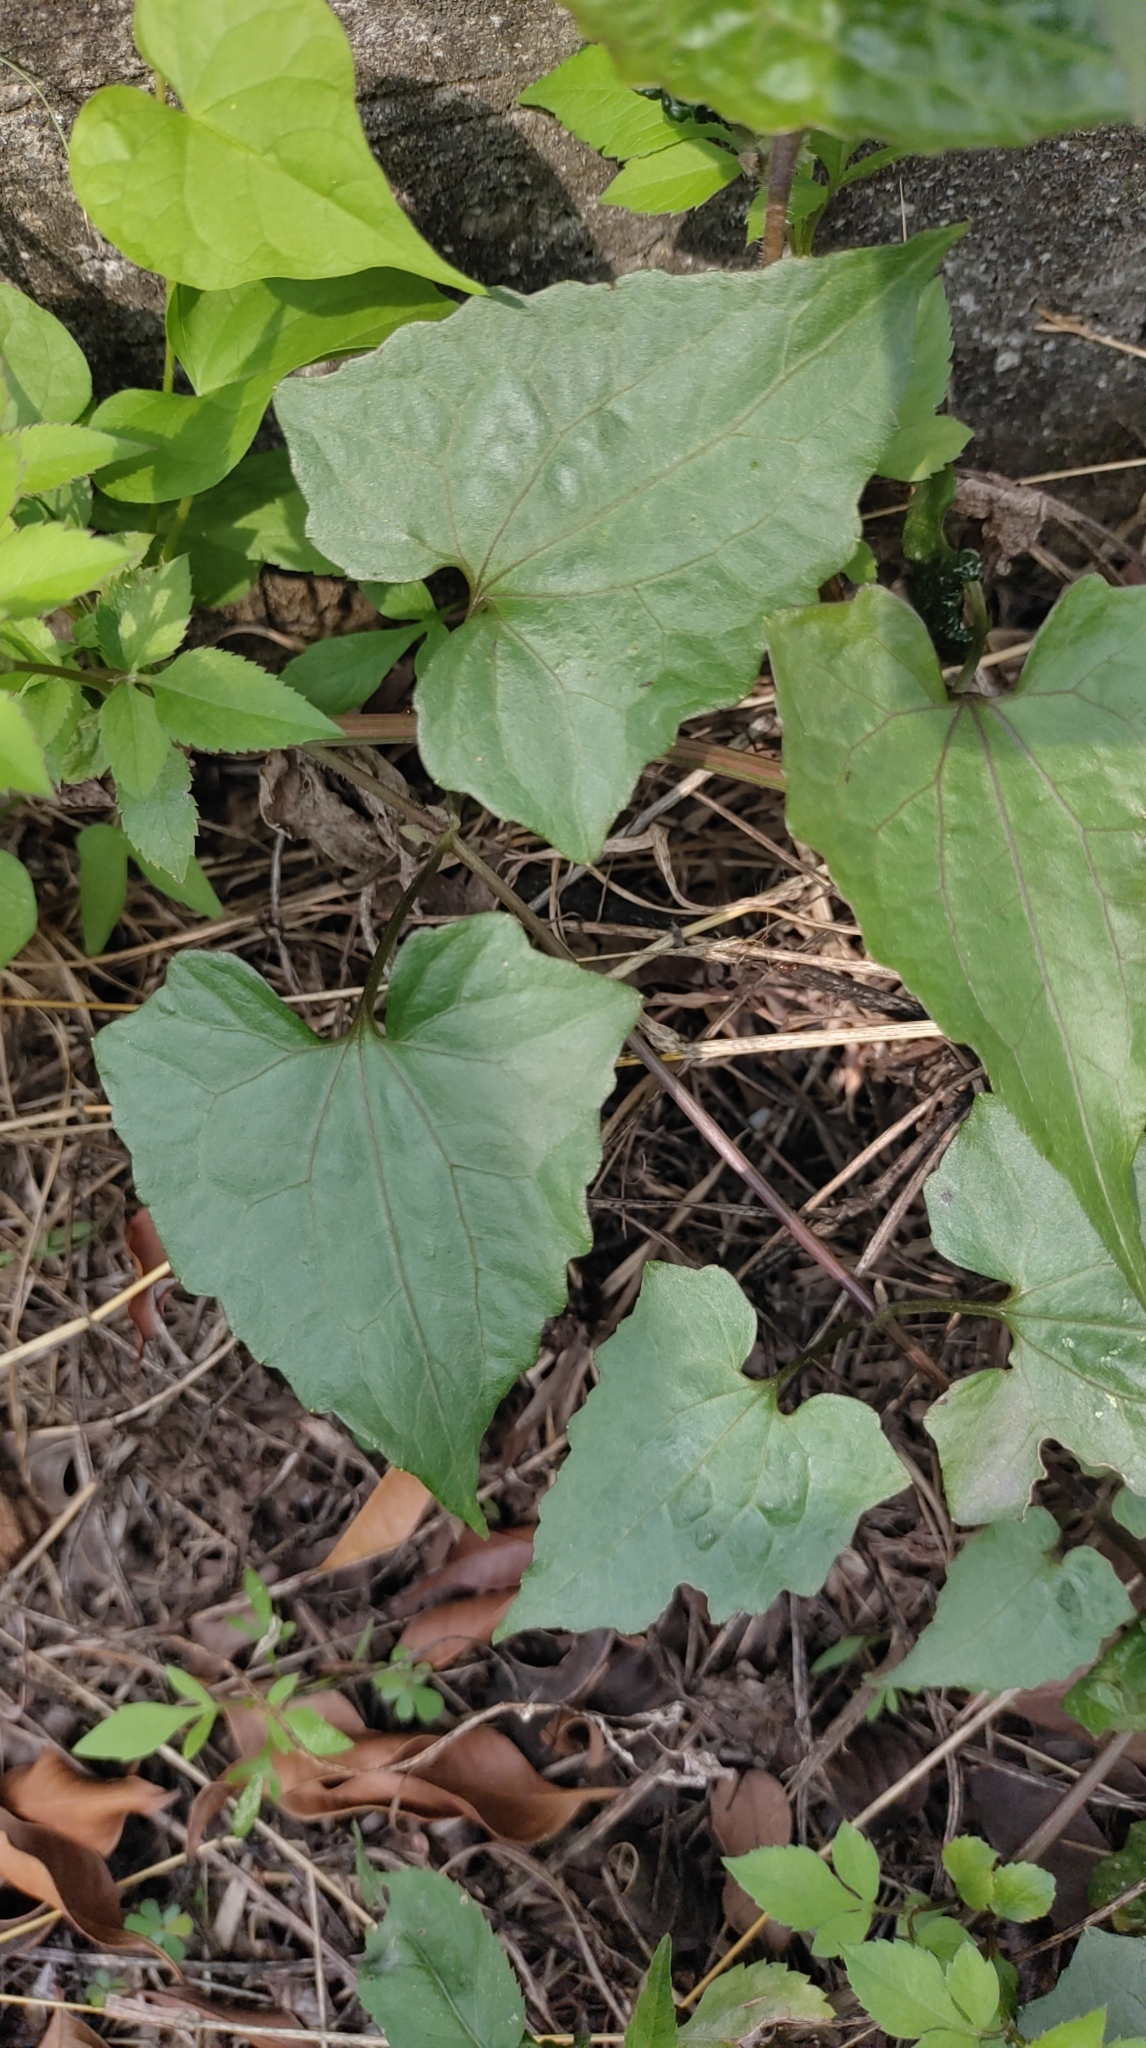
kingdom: Plantae
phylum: Tracheophyta
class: Magnoliopsida
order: Asterales
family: Asteraceae
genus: Mikania
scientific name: Mikania micrantha
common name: Mile-a-minute
